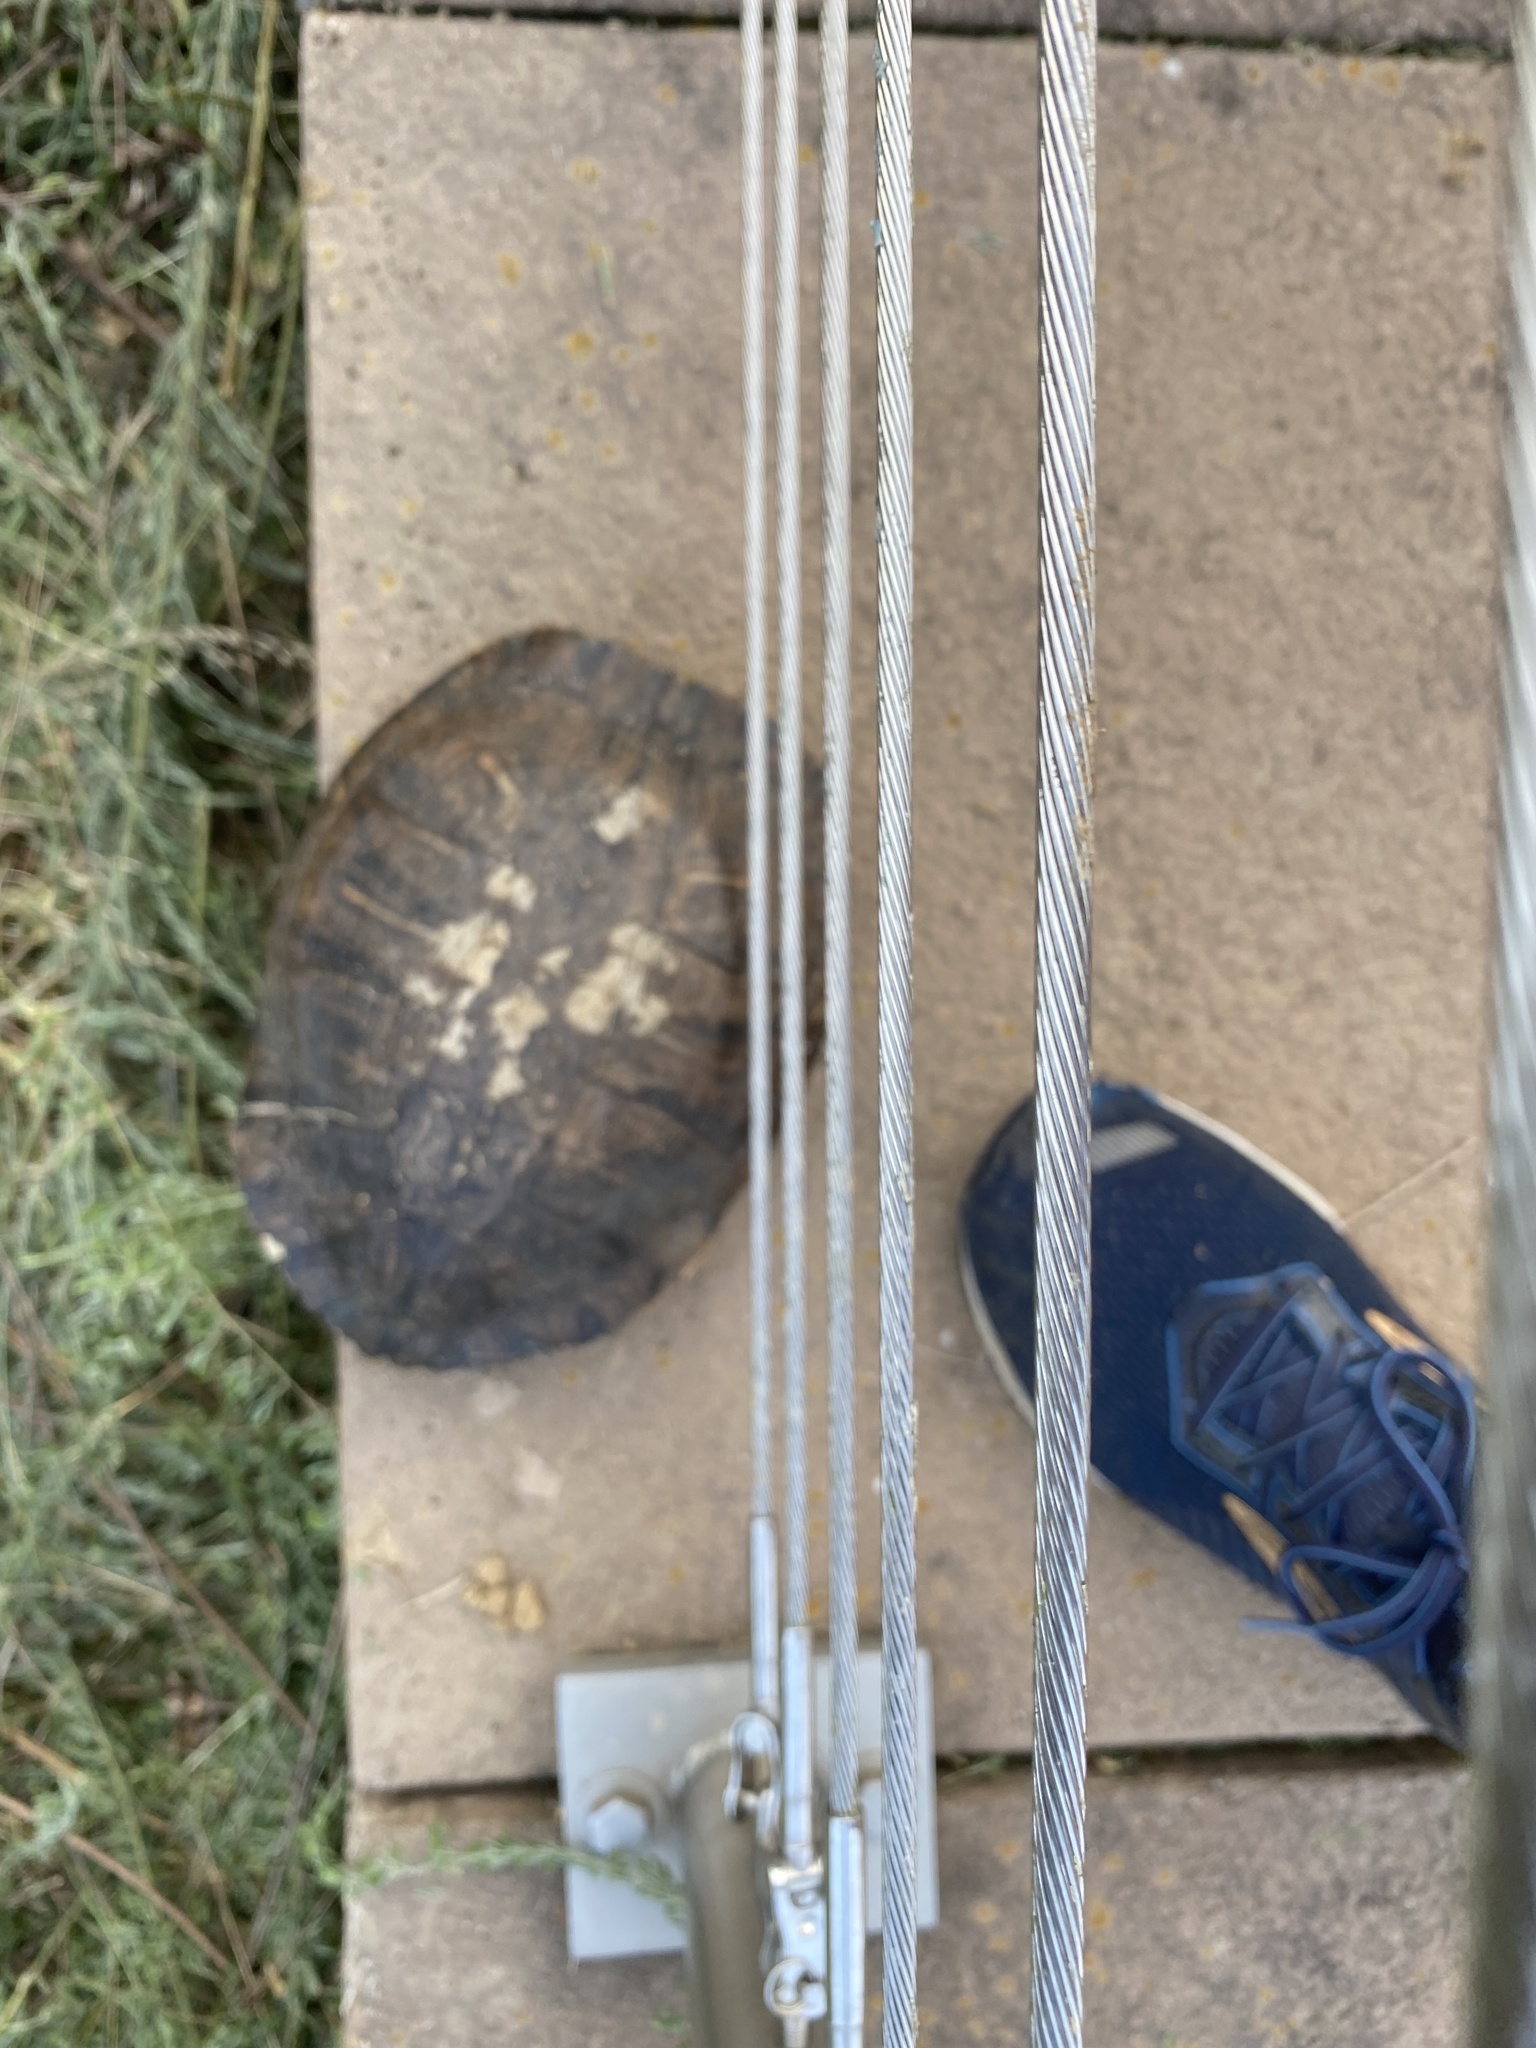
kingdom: Animalia
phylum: Chordata
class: Testudines
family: Emydidae
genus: Trachemys
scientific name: Trachemys scripta
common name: Slider
